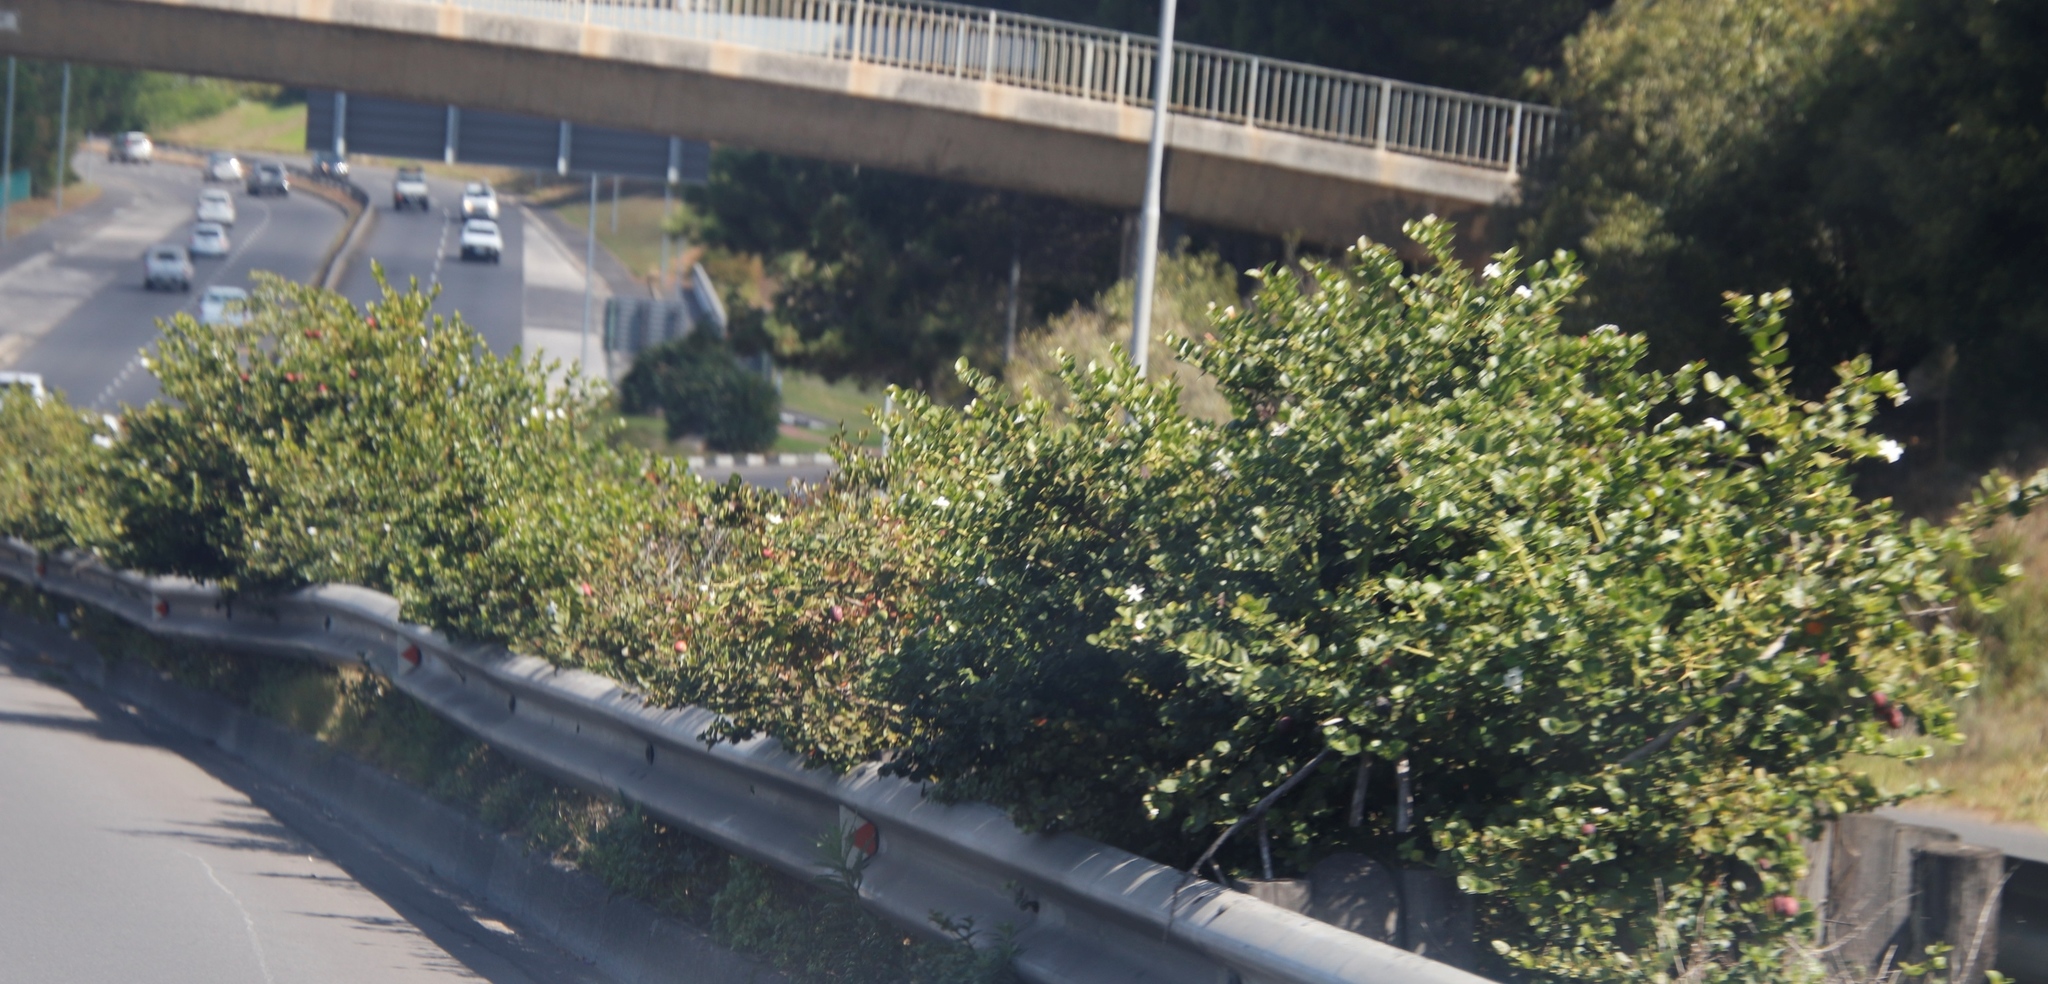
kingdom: Plantae
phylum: Tracheophyta
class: Magnoliopsida
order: Gentianales
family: Apocynaceae
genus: Carissa
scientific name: Carissa macrocarpa
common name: Natal plum
